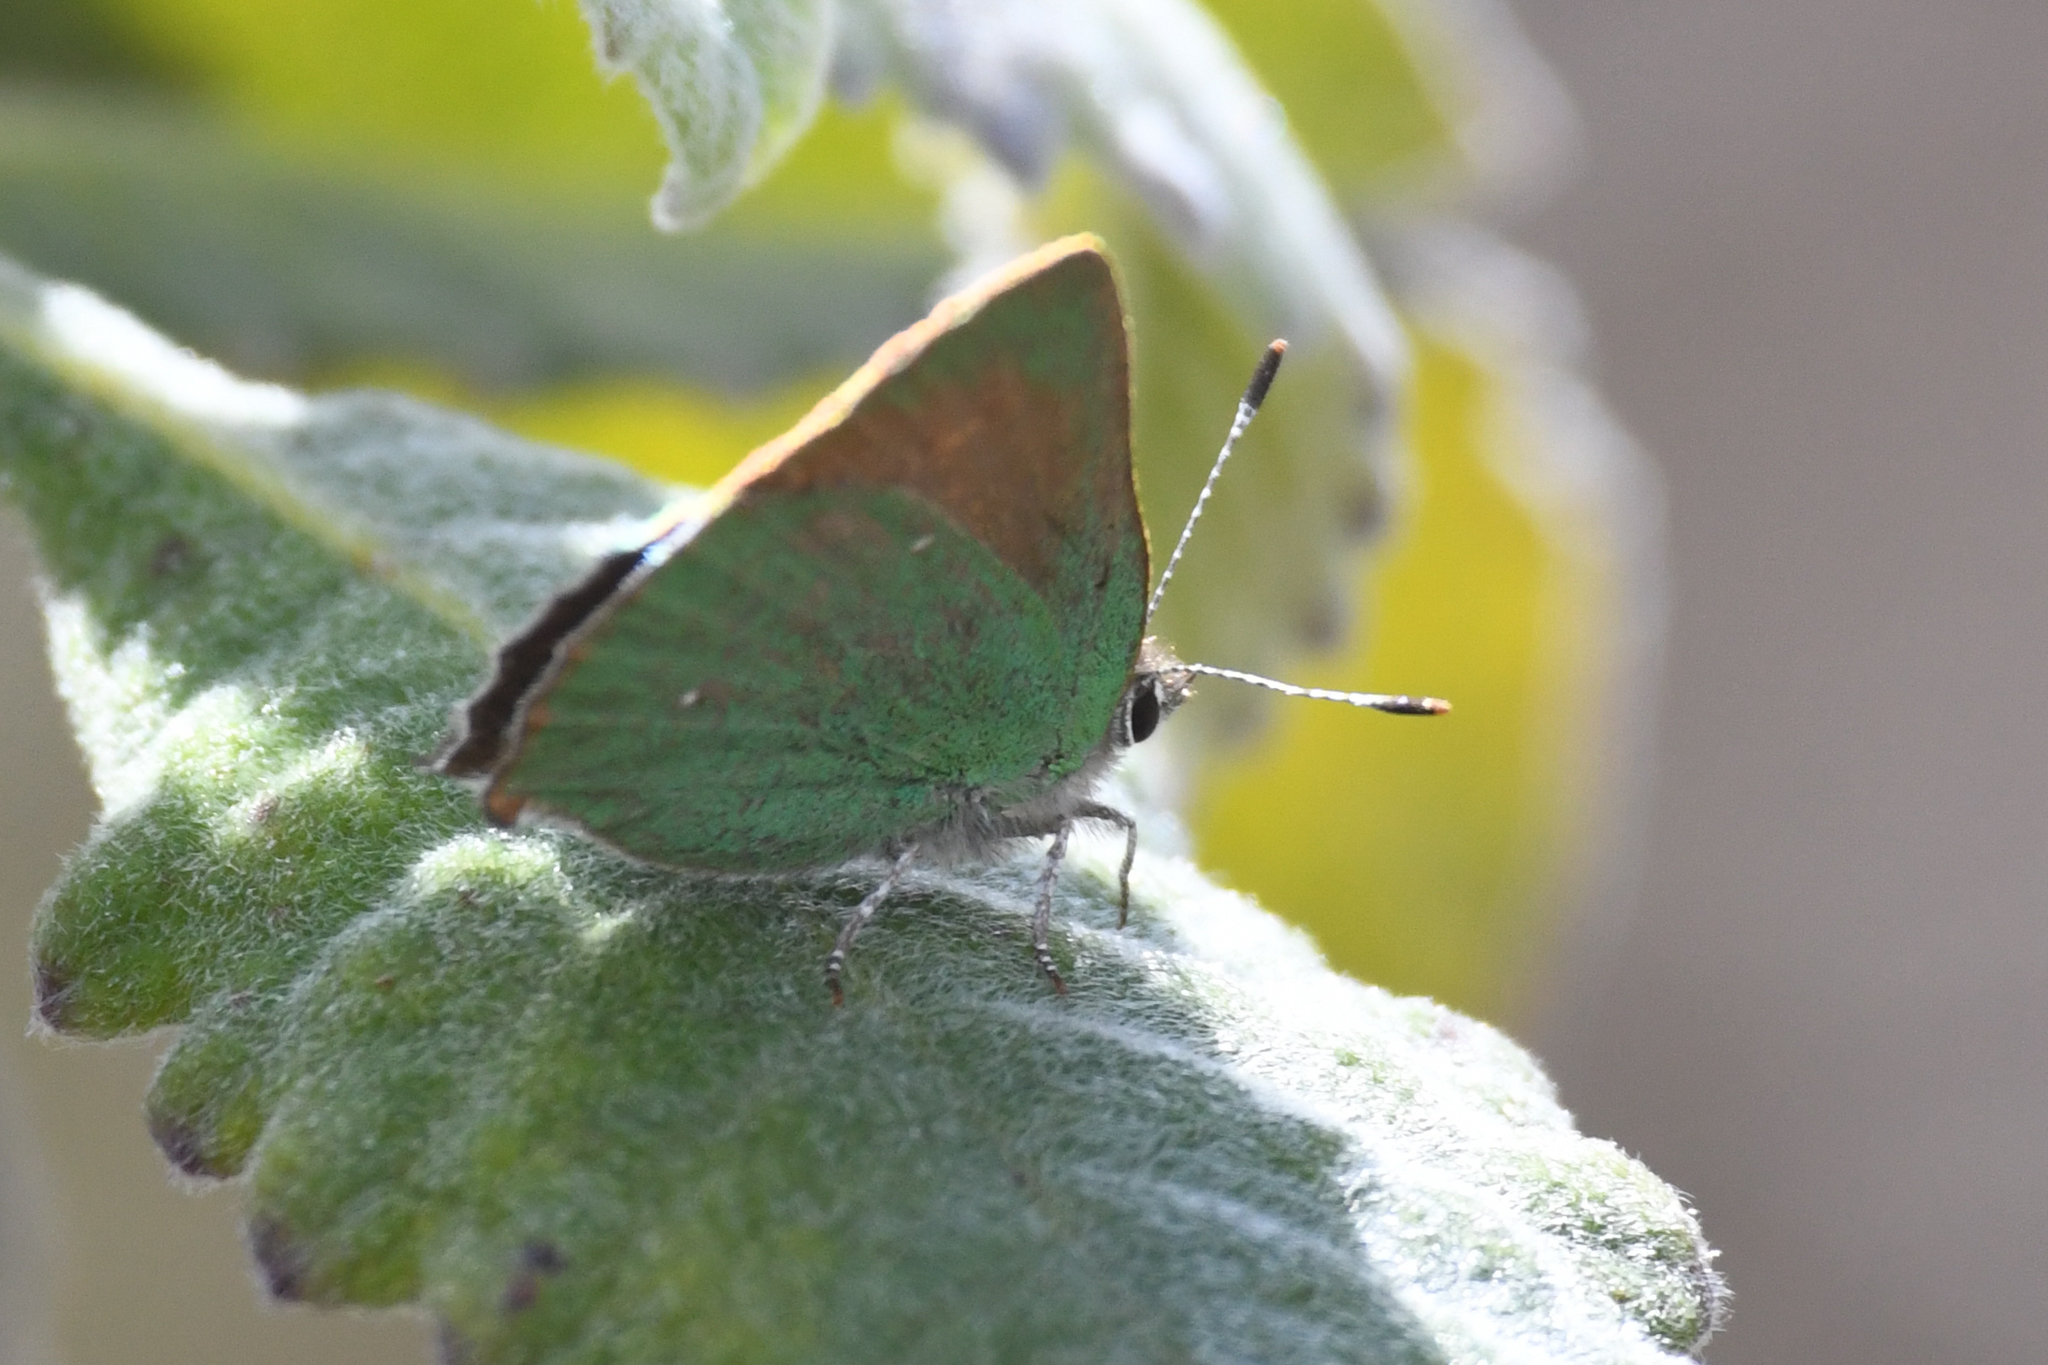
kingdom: Animalia
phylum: Arthropoda
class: Insecta
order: Lepidoptera
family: Lycaenidae
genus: Callophrys
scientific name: Callophrys dumetorum
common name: Bramble hairstreak
